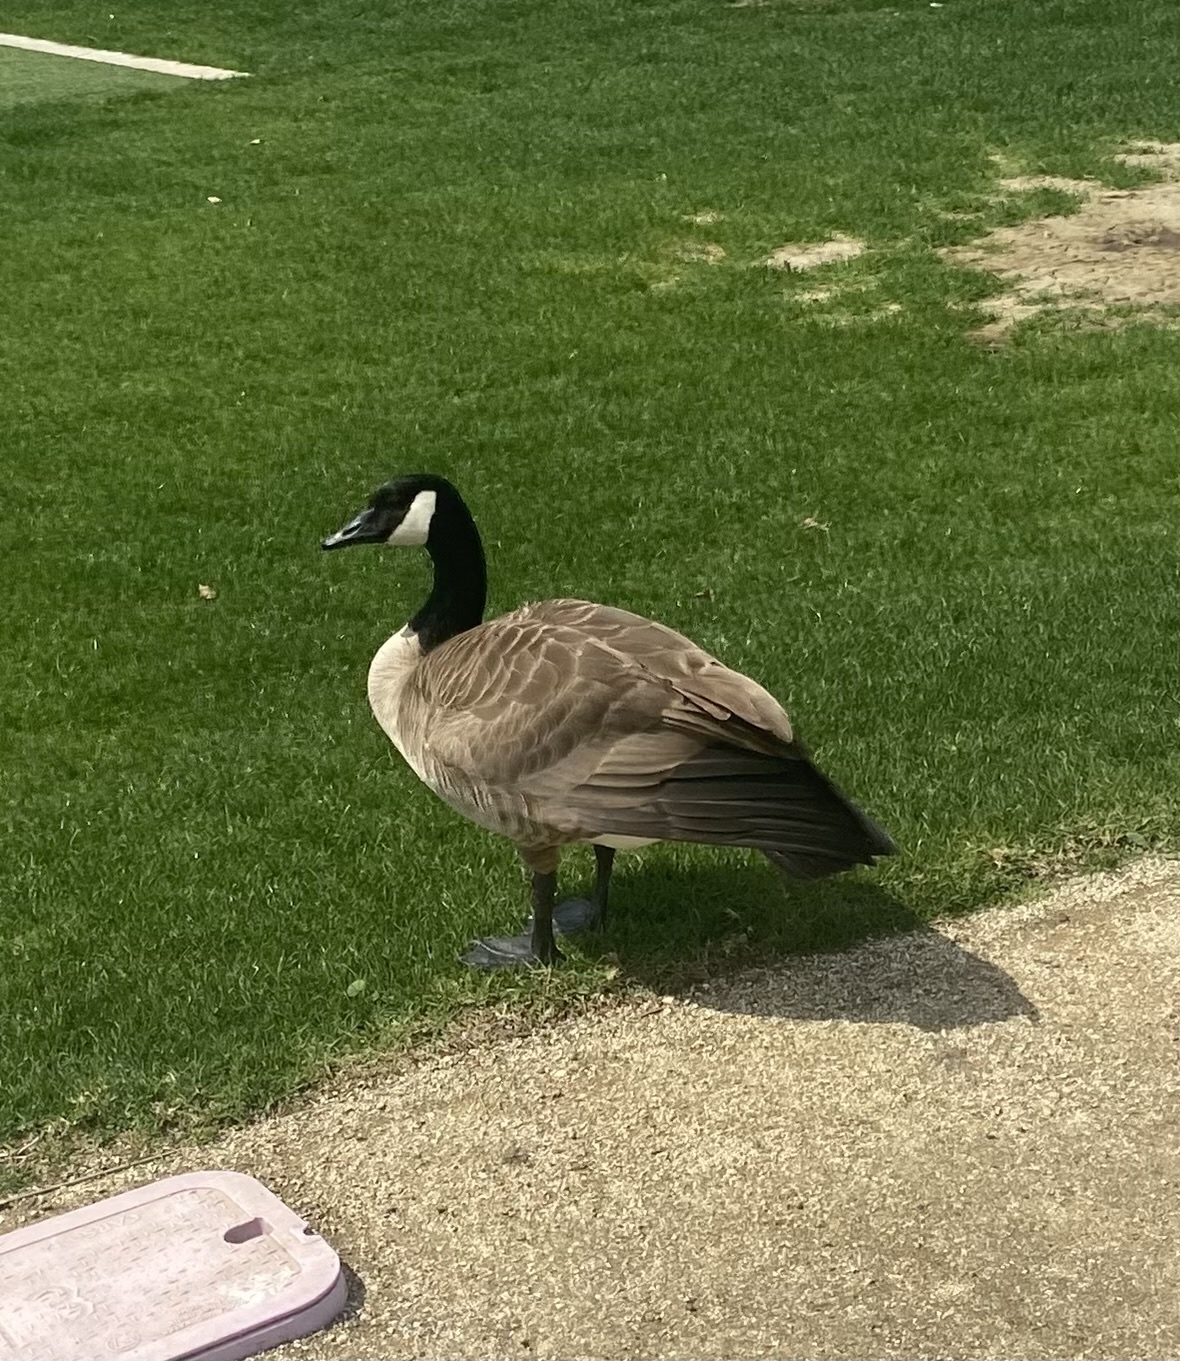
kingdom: Animalia
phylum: Chordata
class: Aves
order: Anseriformes
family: Anatidae
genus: Branta
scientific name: Branta canadensis
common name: Canada goose
